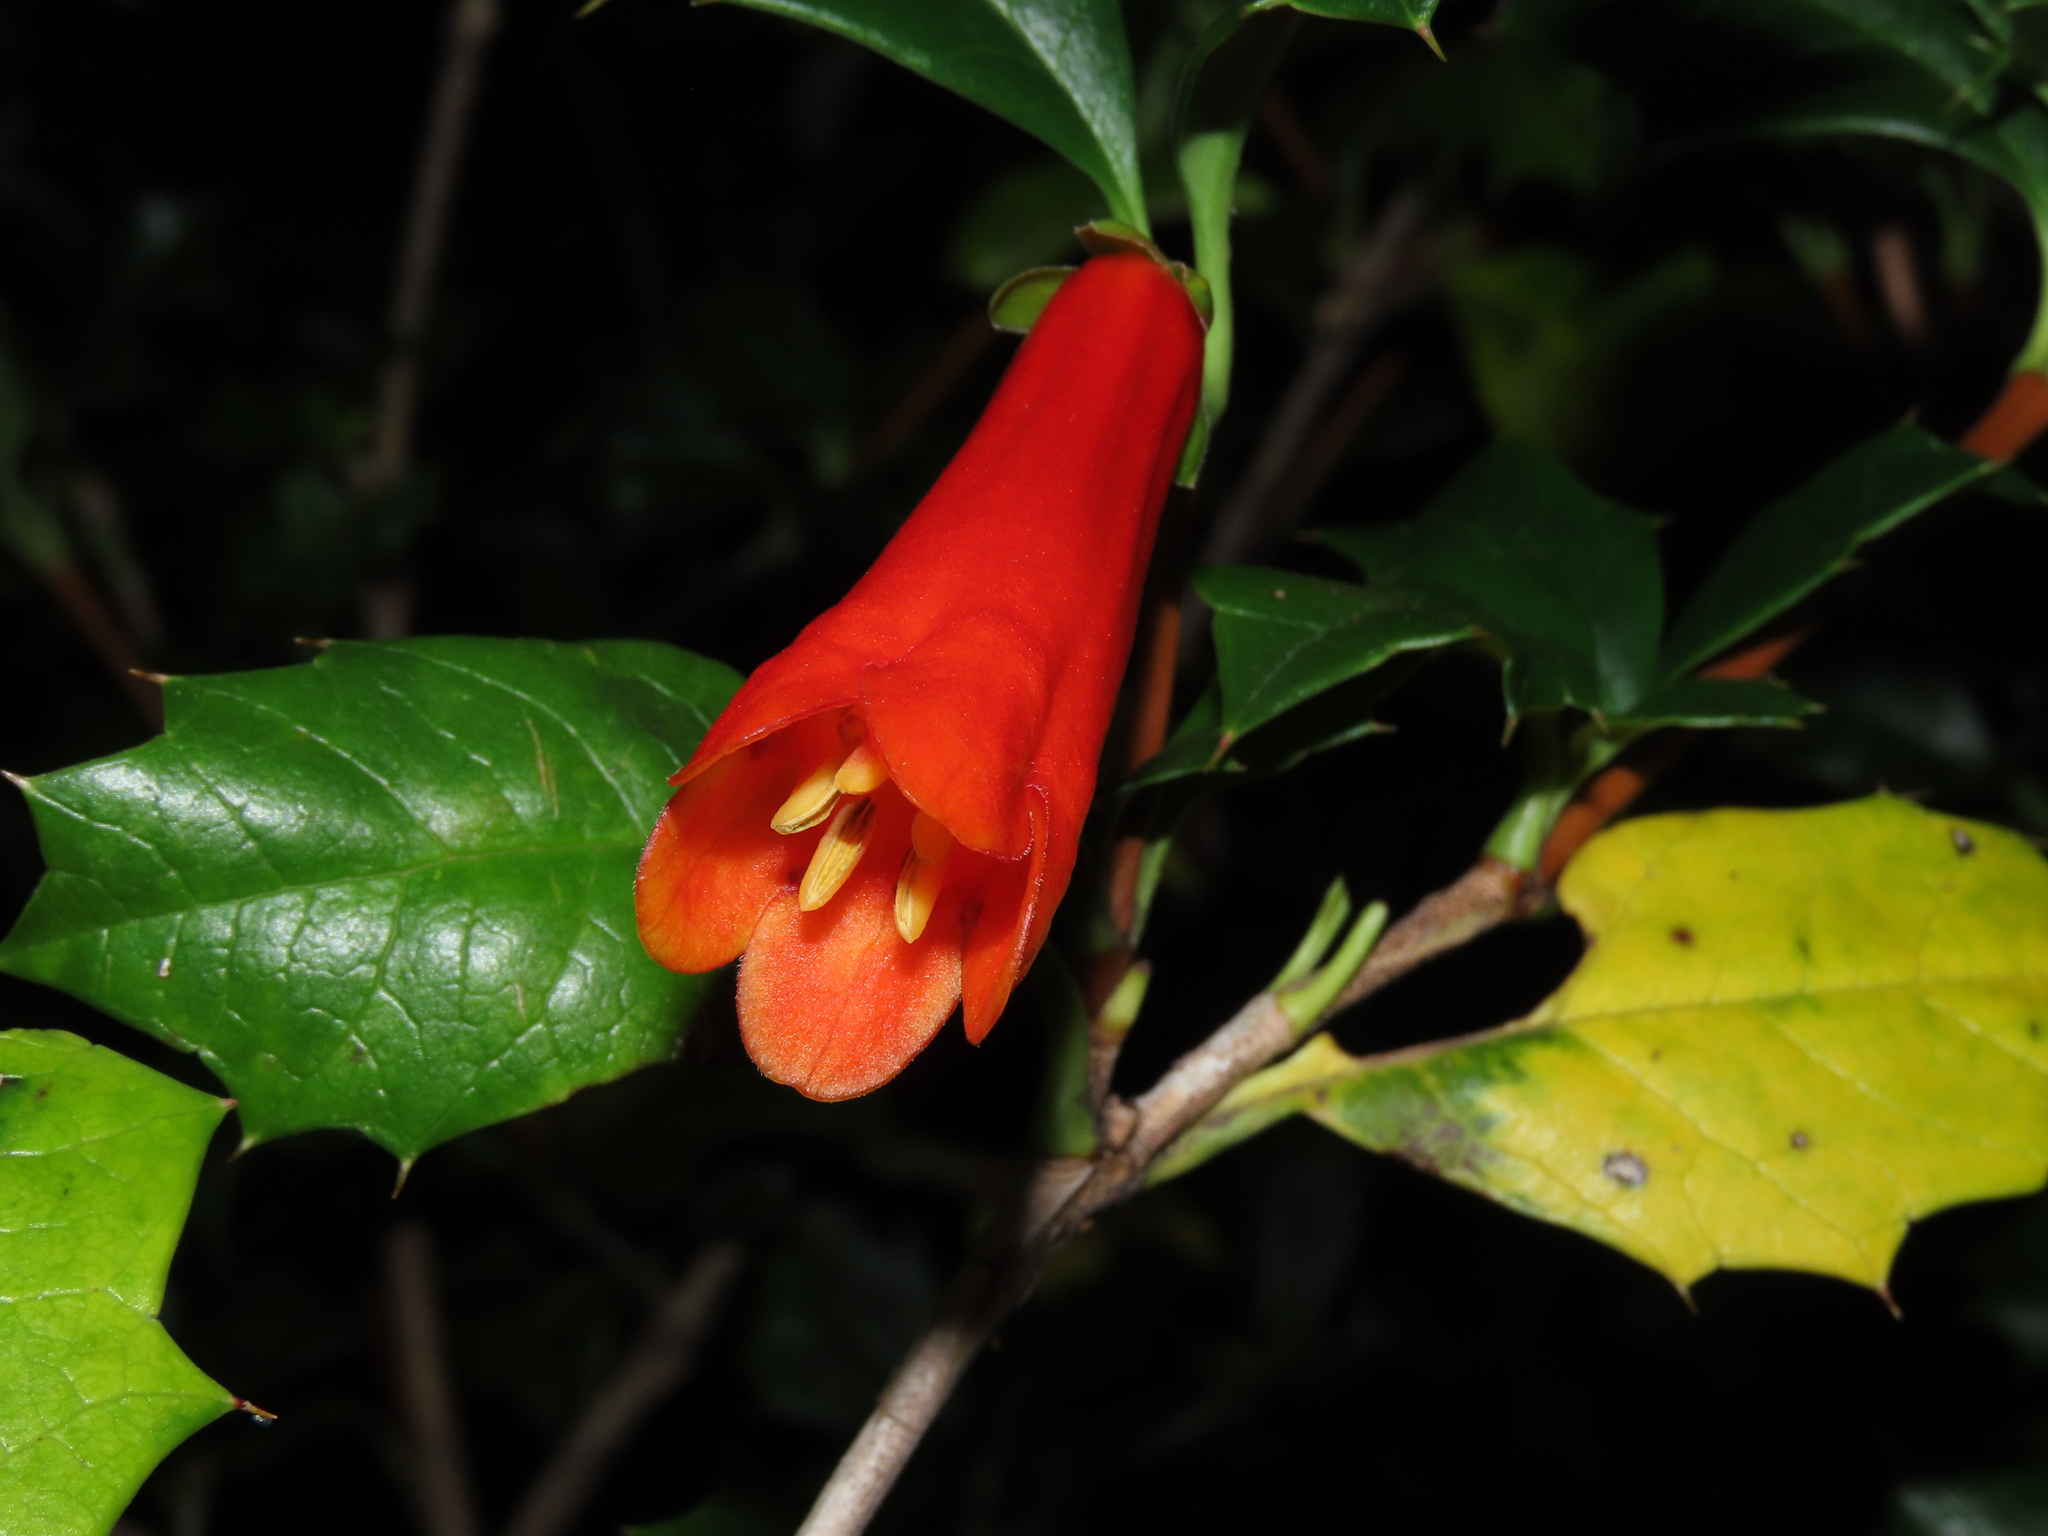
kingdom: Plantae
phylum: Tracheophyta
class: Magnoliopsida
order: Bruniales
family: Columelliaceae
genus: Desfontainia
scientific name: Desfontainia fulgens
